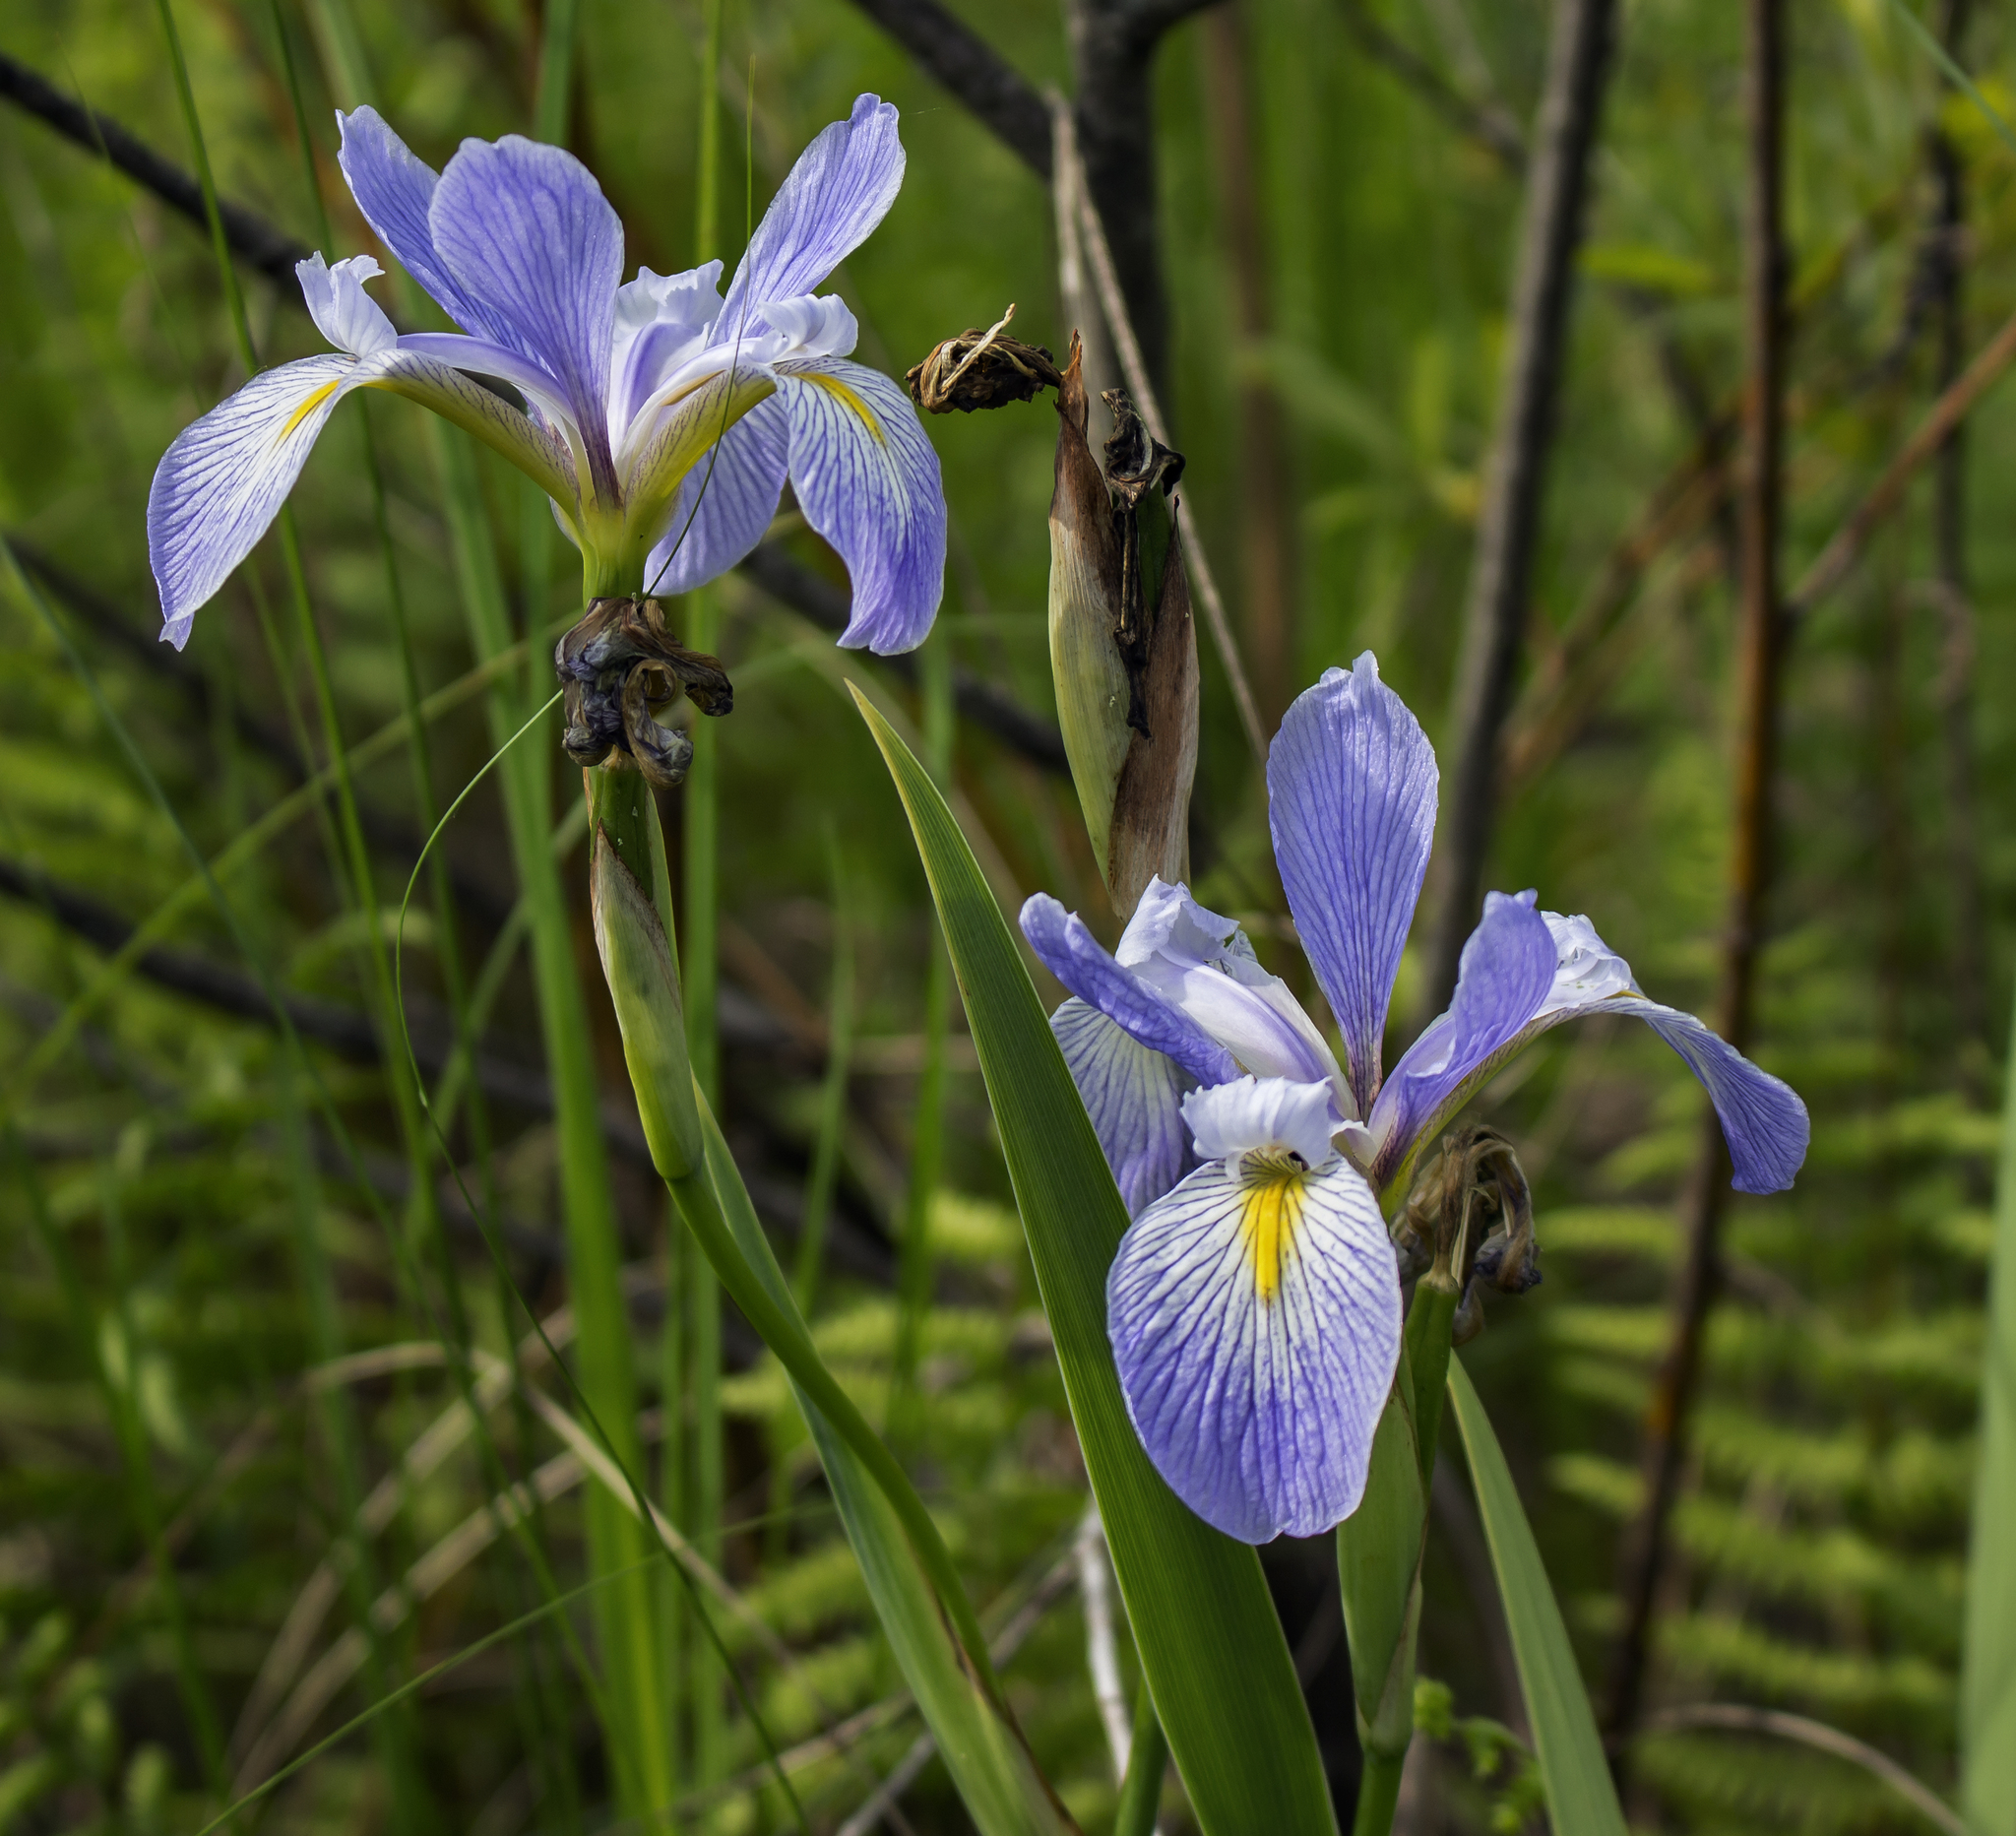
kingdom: Plantae
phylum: Tracheophyta
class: Liliopsida
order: Asparagales
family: Iridaceae
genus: Iris
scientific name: Iris virginica
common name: Southern blue flag
